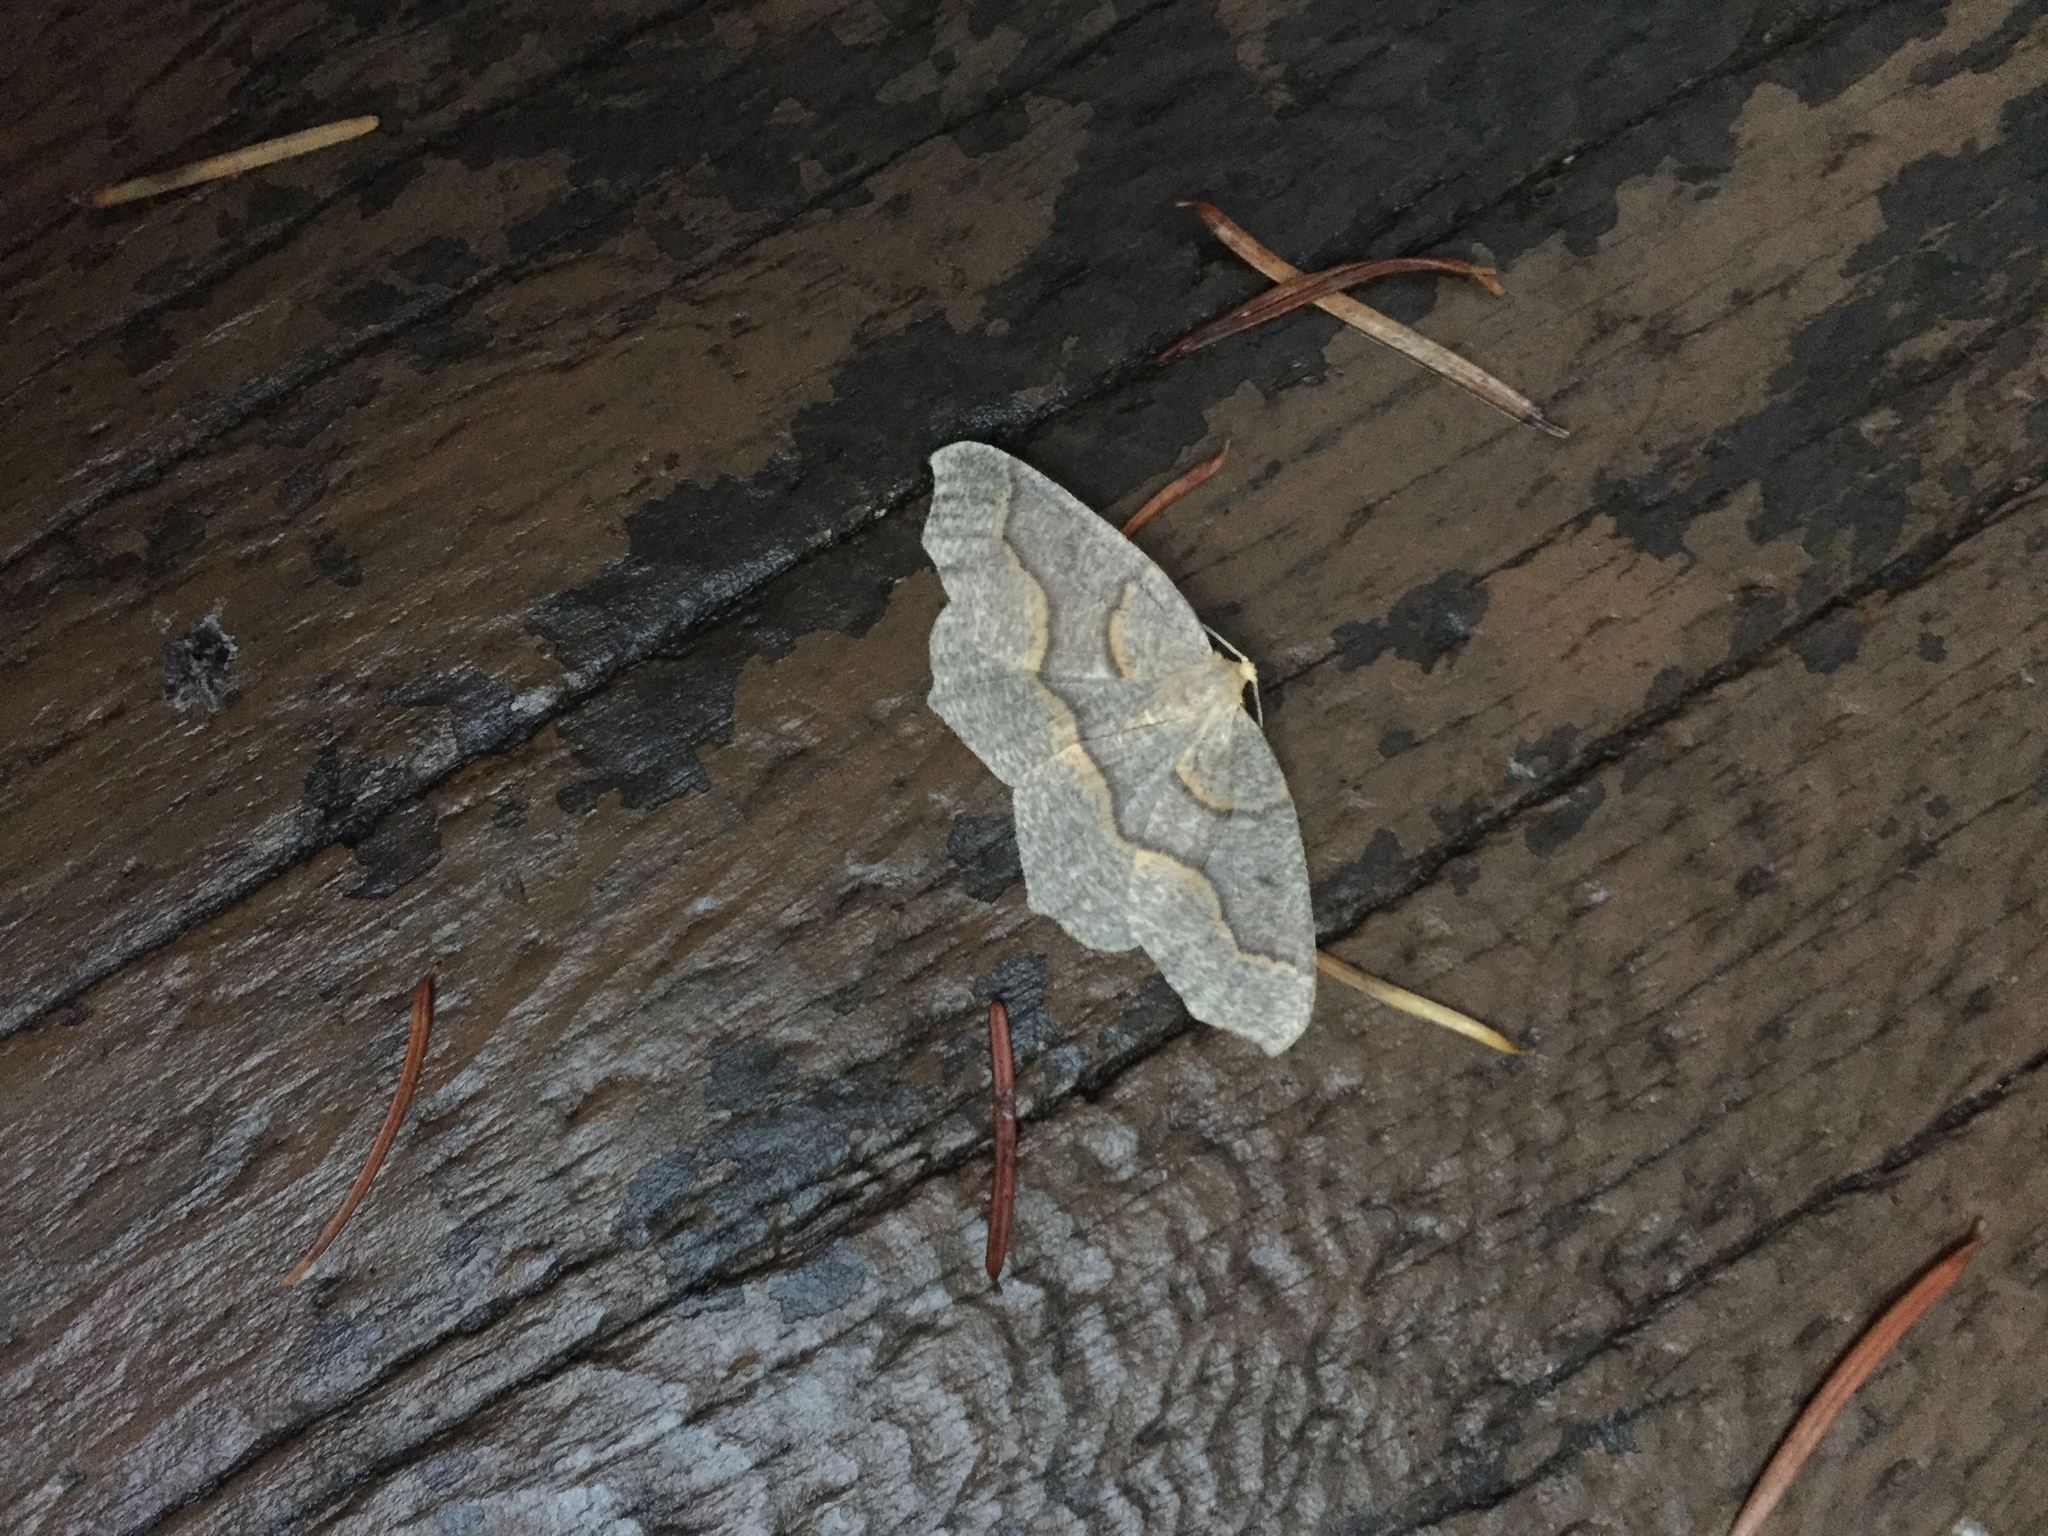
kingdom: Animalia
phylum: Arthropoda
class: Insecta
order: Lepidoptera
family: Geometridae
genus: Lambdina
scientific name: Lambdina fiscellaria
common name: Hemlock looper
